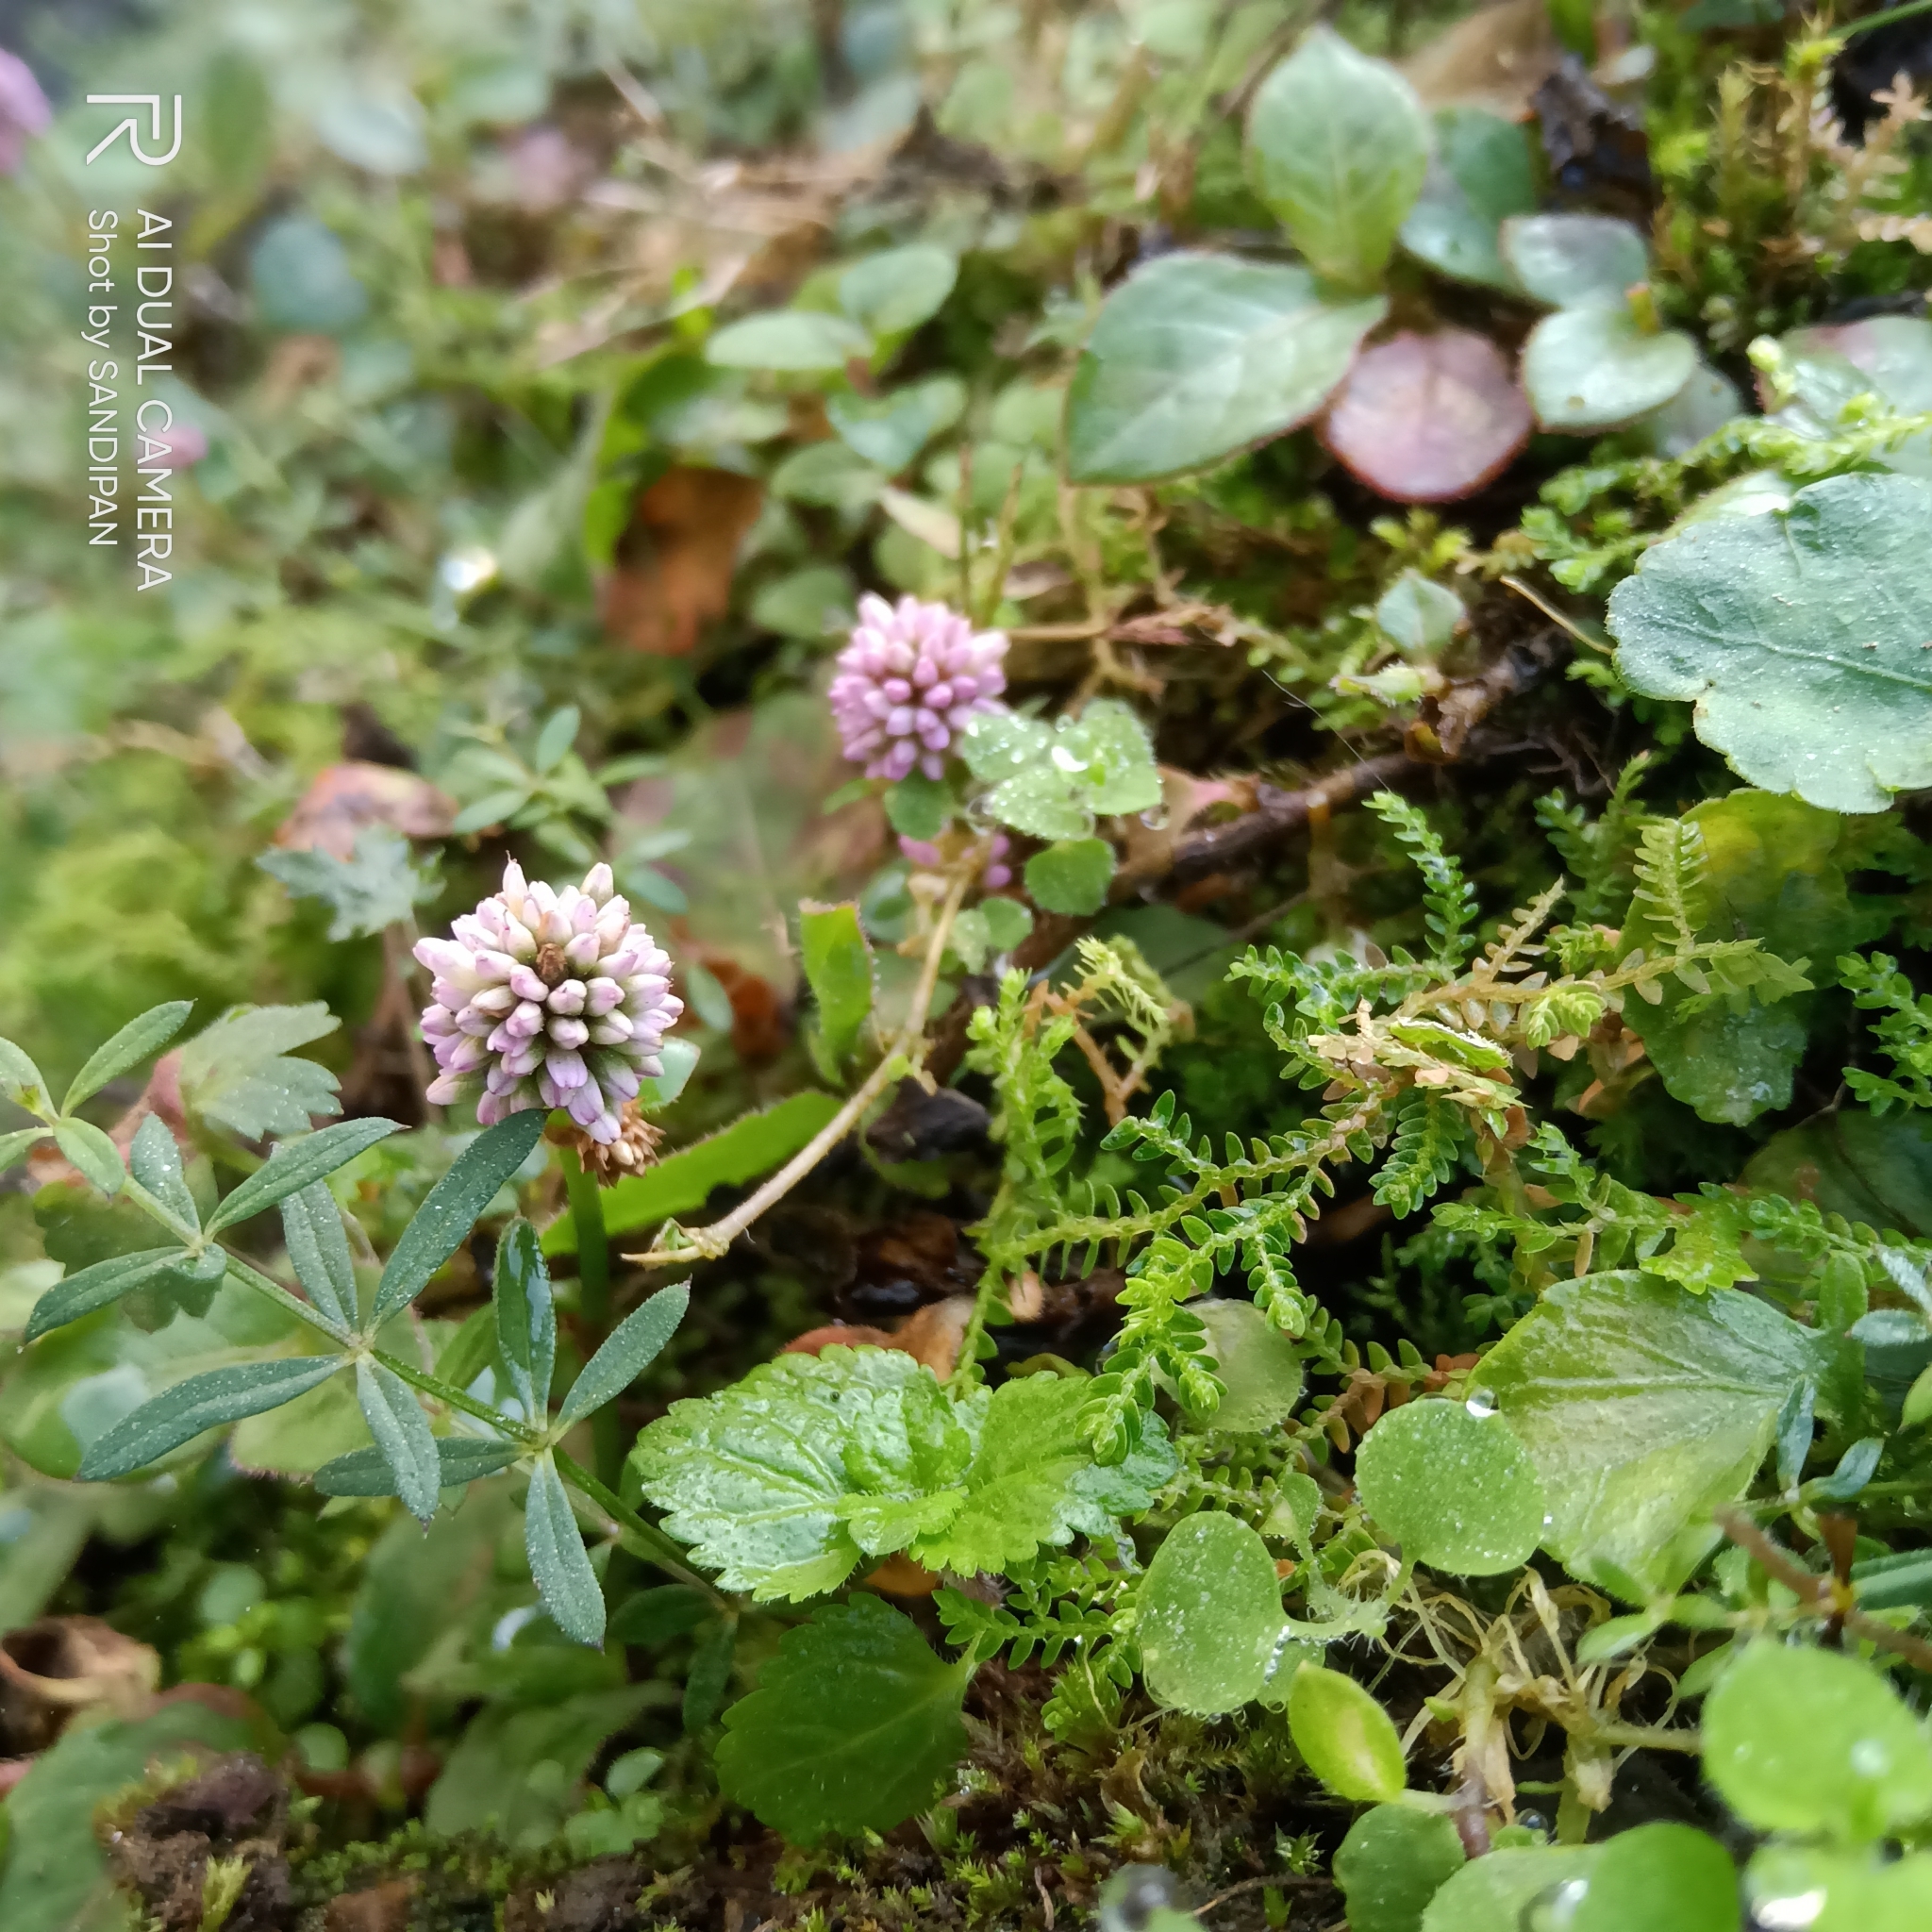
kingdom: Plantae
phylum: Tracheophyta
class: Magnoliopsida
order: Caryophyllales
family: Polygonaceae
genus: Persicaria
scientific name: Persicaria capitata
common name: Pinkhead smartweed
